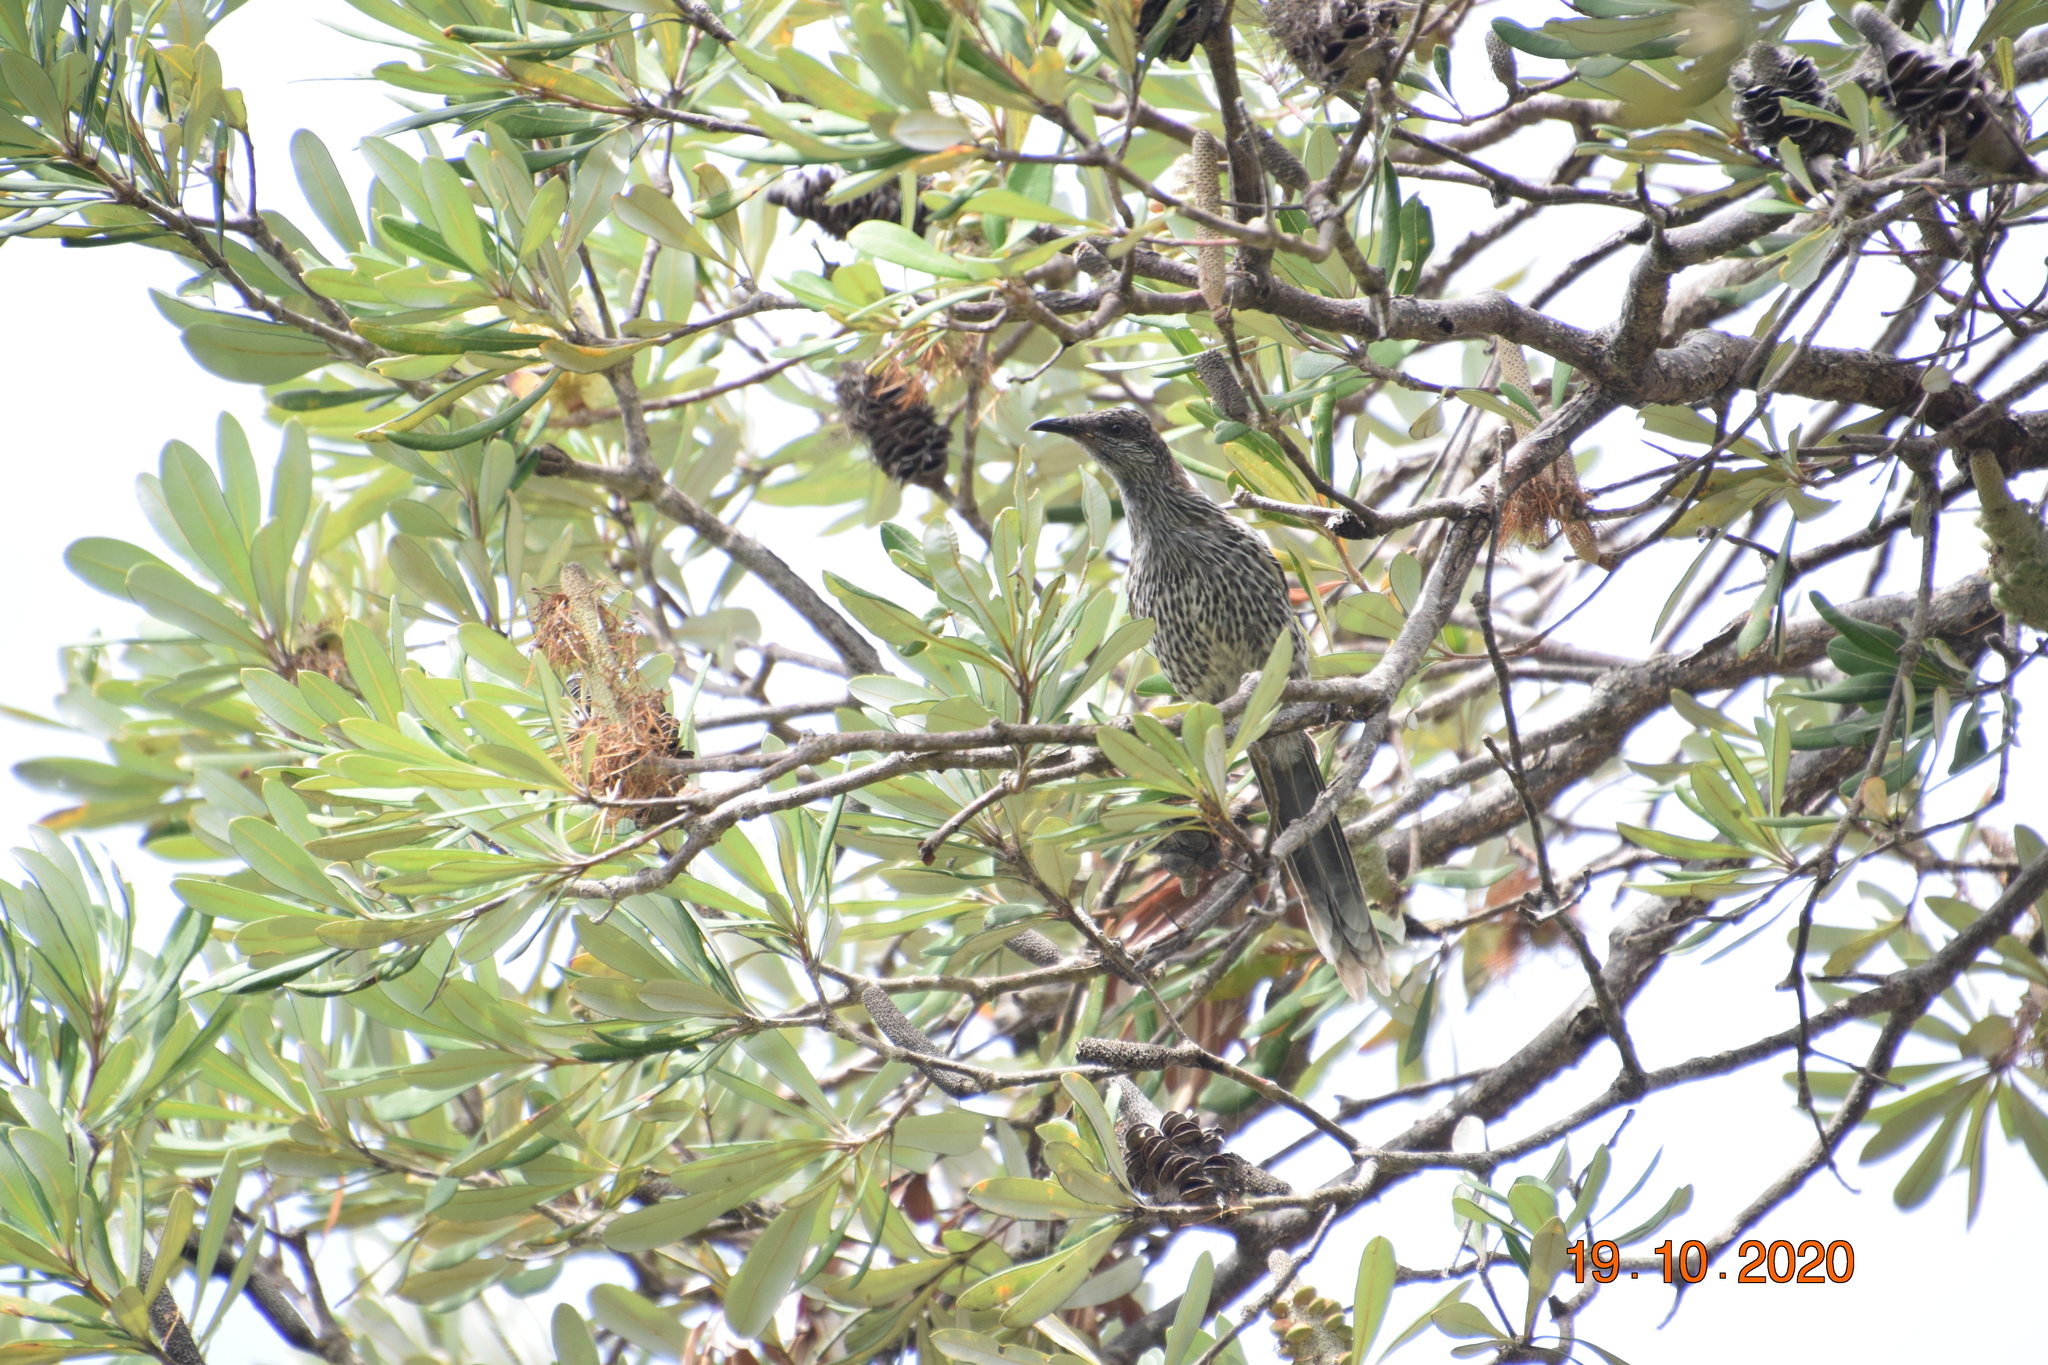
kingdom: Animalia
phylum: Chordata
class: Aves
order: Passeriformes
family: Meliphagidae
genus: Anthochaera
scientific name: Anthochaera chrysoptera
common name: Little wattlebird
